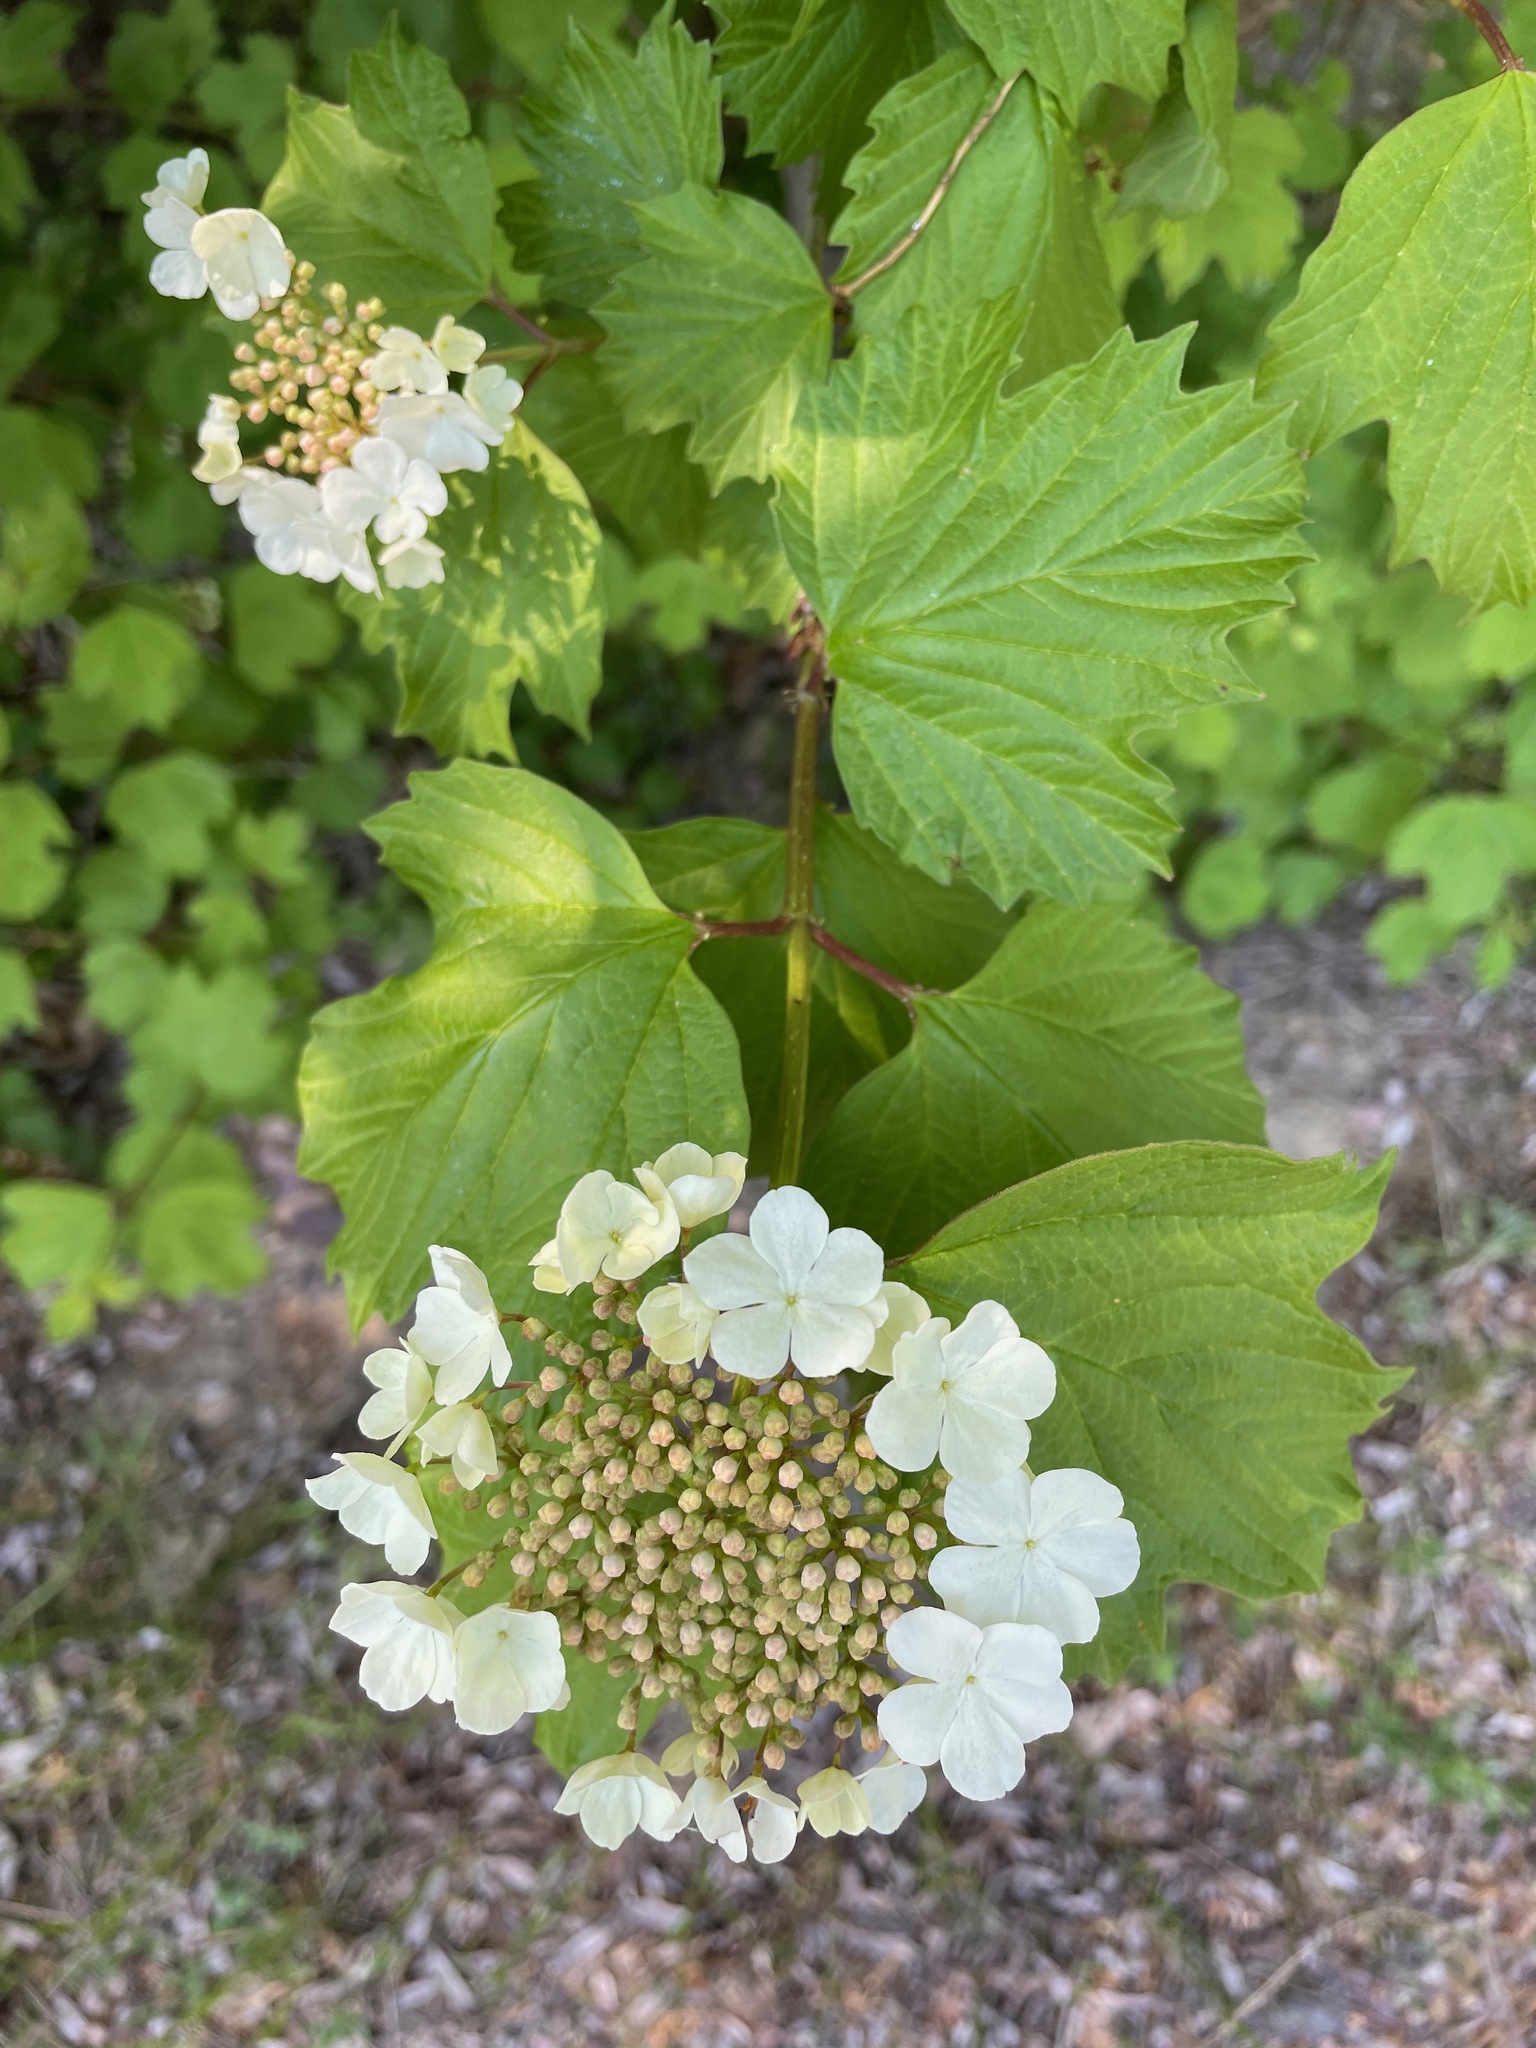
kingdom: Plantae
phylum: Tracheophyta
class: Magnoliopsida
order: Dipsacales
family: Viburnaceae
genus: Viburnum
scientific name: Viburnum opulus
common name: Guelder-rose
